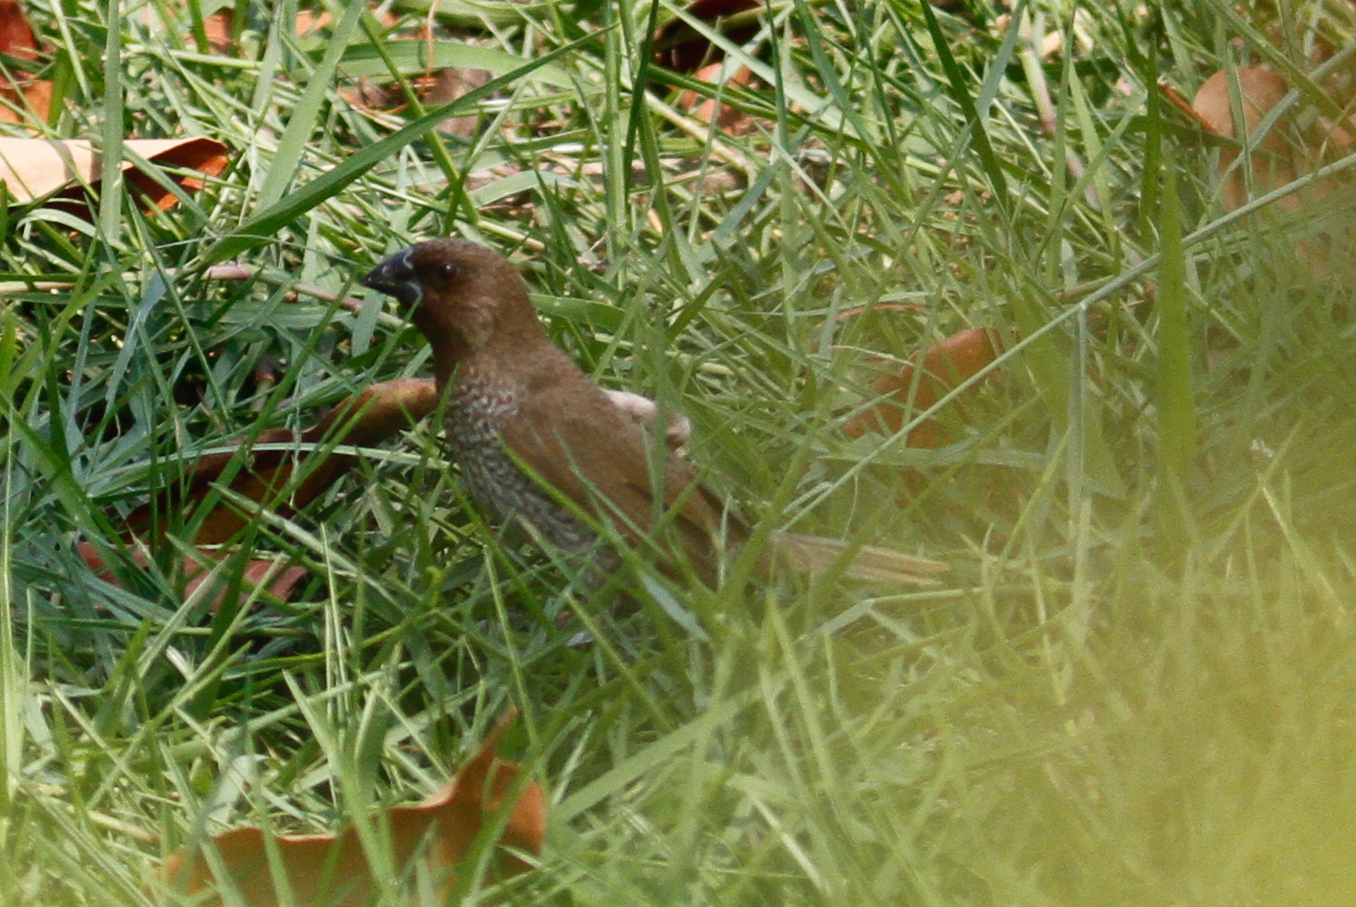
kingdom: Animalia
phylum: Chordata
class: Aves
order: Passeriformes
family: Estrildidae
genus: Lonchura
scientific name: Lonchura punctulata
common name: Scaly-breasted munia
